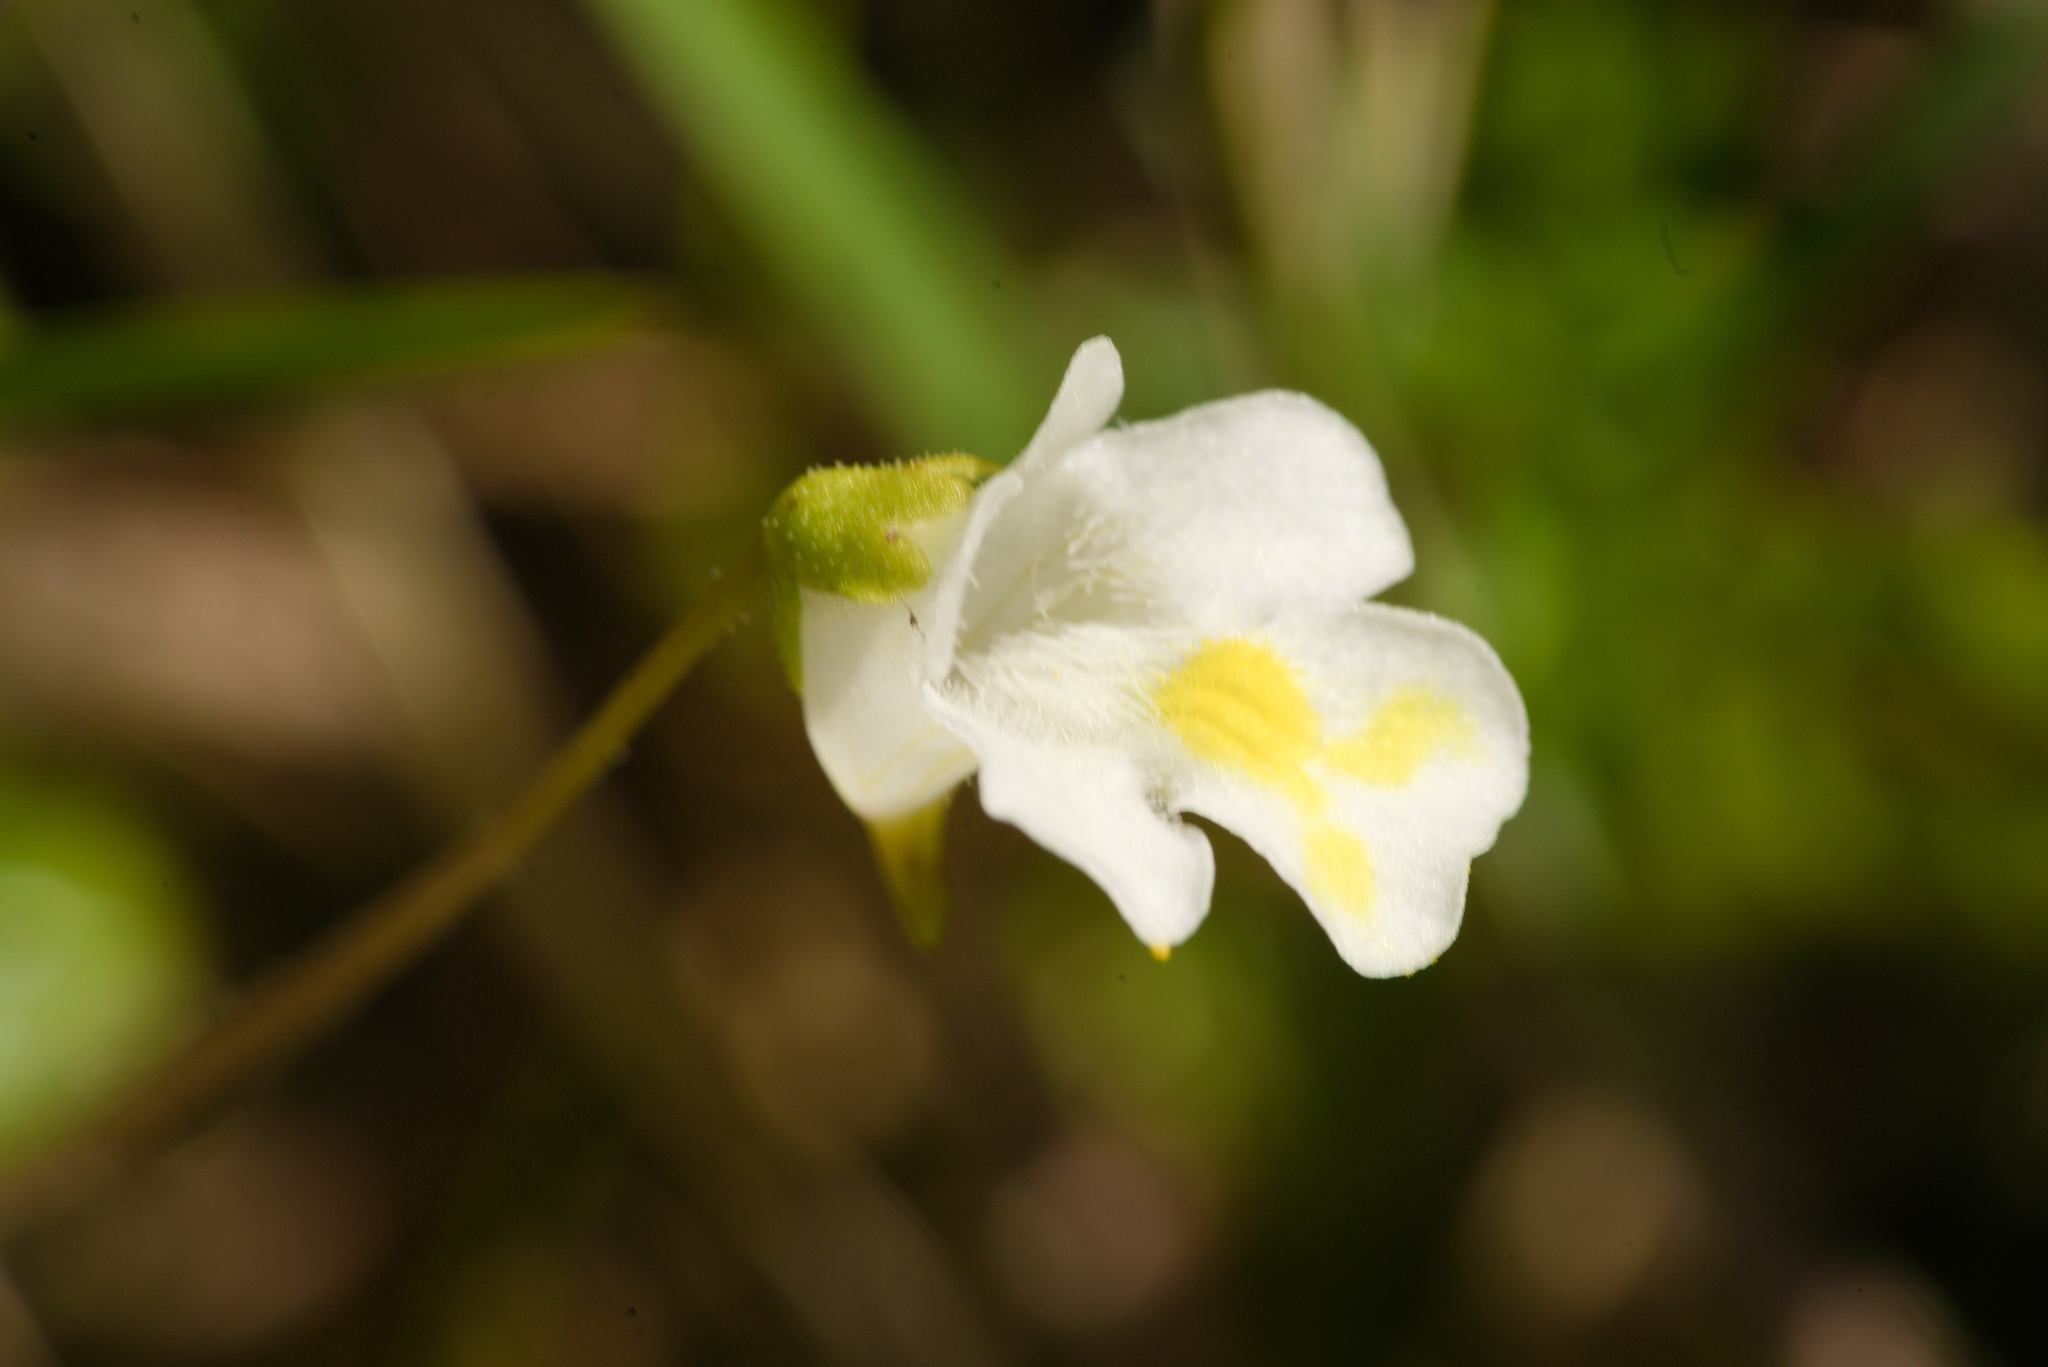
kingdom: Plantae
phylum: Tracheophyta
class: Magnoliopsida
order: Lamiales
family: Lentibulariaceae
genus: Pinguicula
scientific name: Pinguicula alpina
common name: Alpine butterwort
